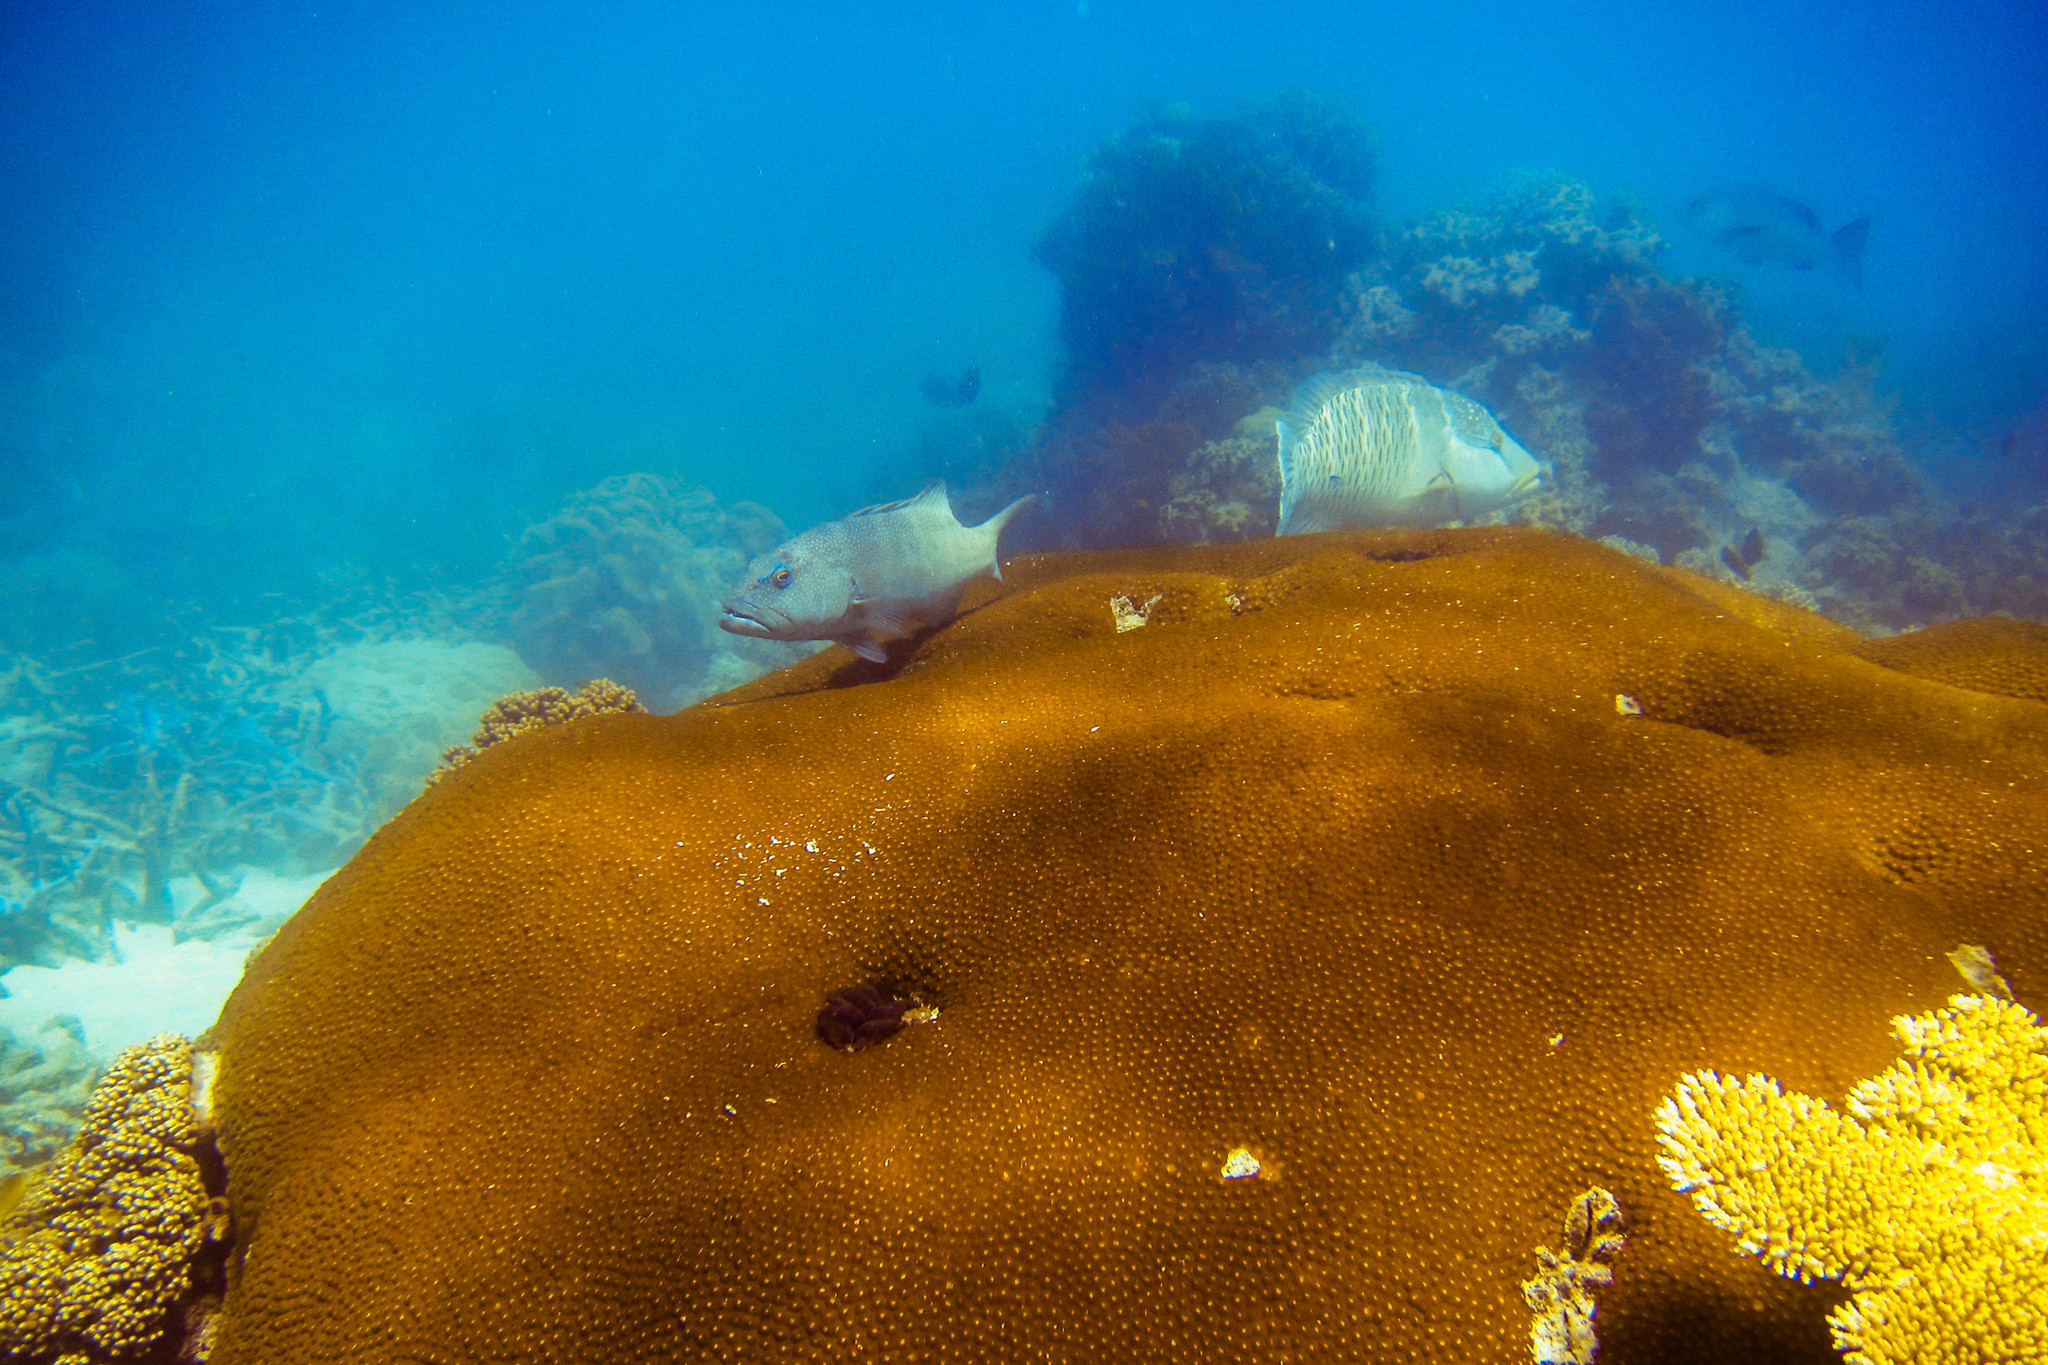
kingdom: Animalia
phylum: Chordata
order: Perciformes
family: Serranidae
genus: Plectropomus
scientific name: Plectropomus leopardus
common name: Coral trout
